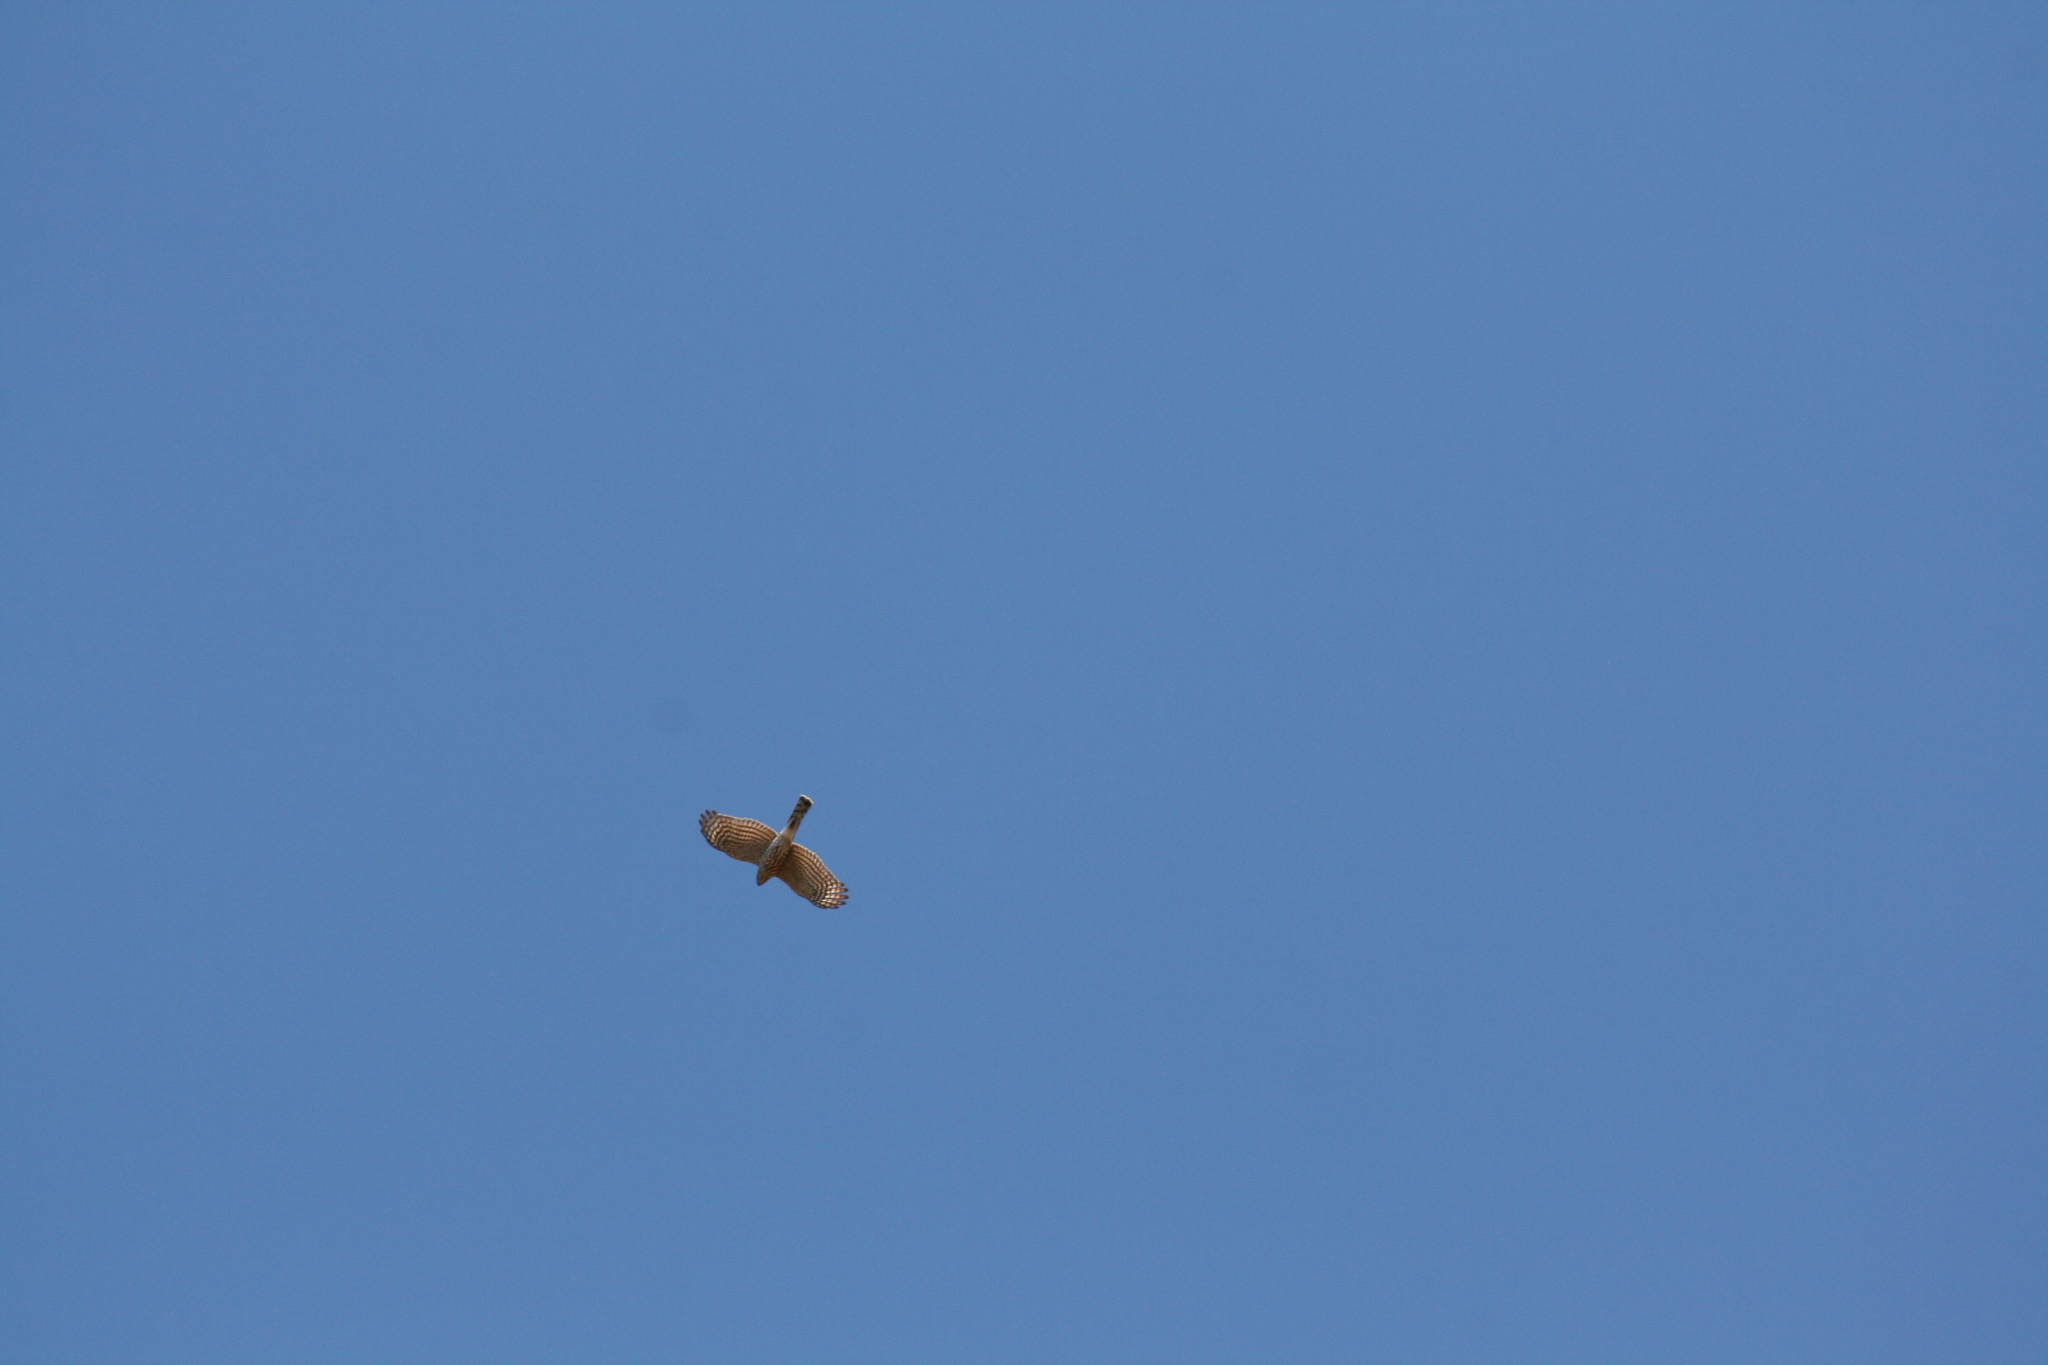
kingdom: Animalia
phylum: Chordata
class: Aves
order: Accipitriformes
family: Accipitridae
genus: Accipiter
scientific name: Accipiter cooperii
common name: Cooper's hawk
